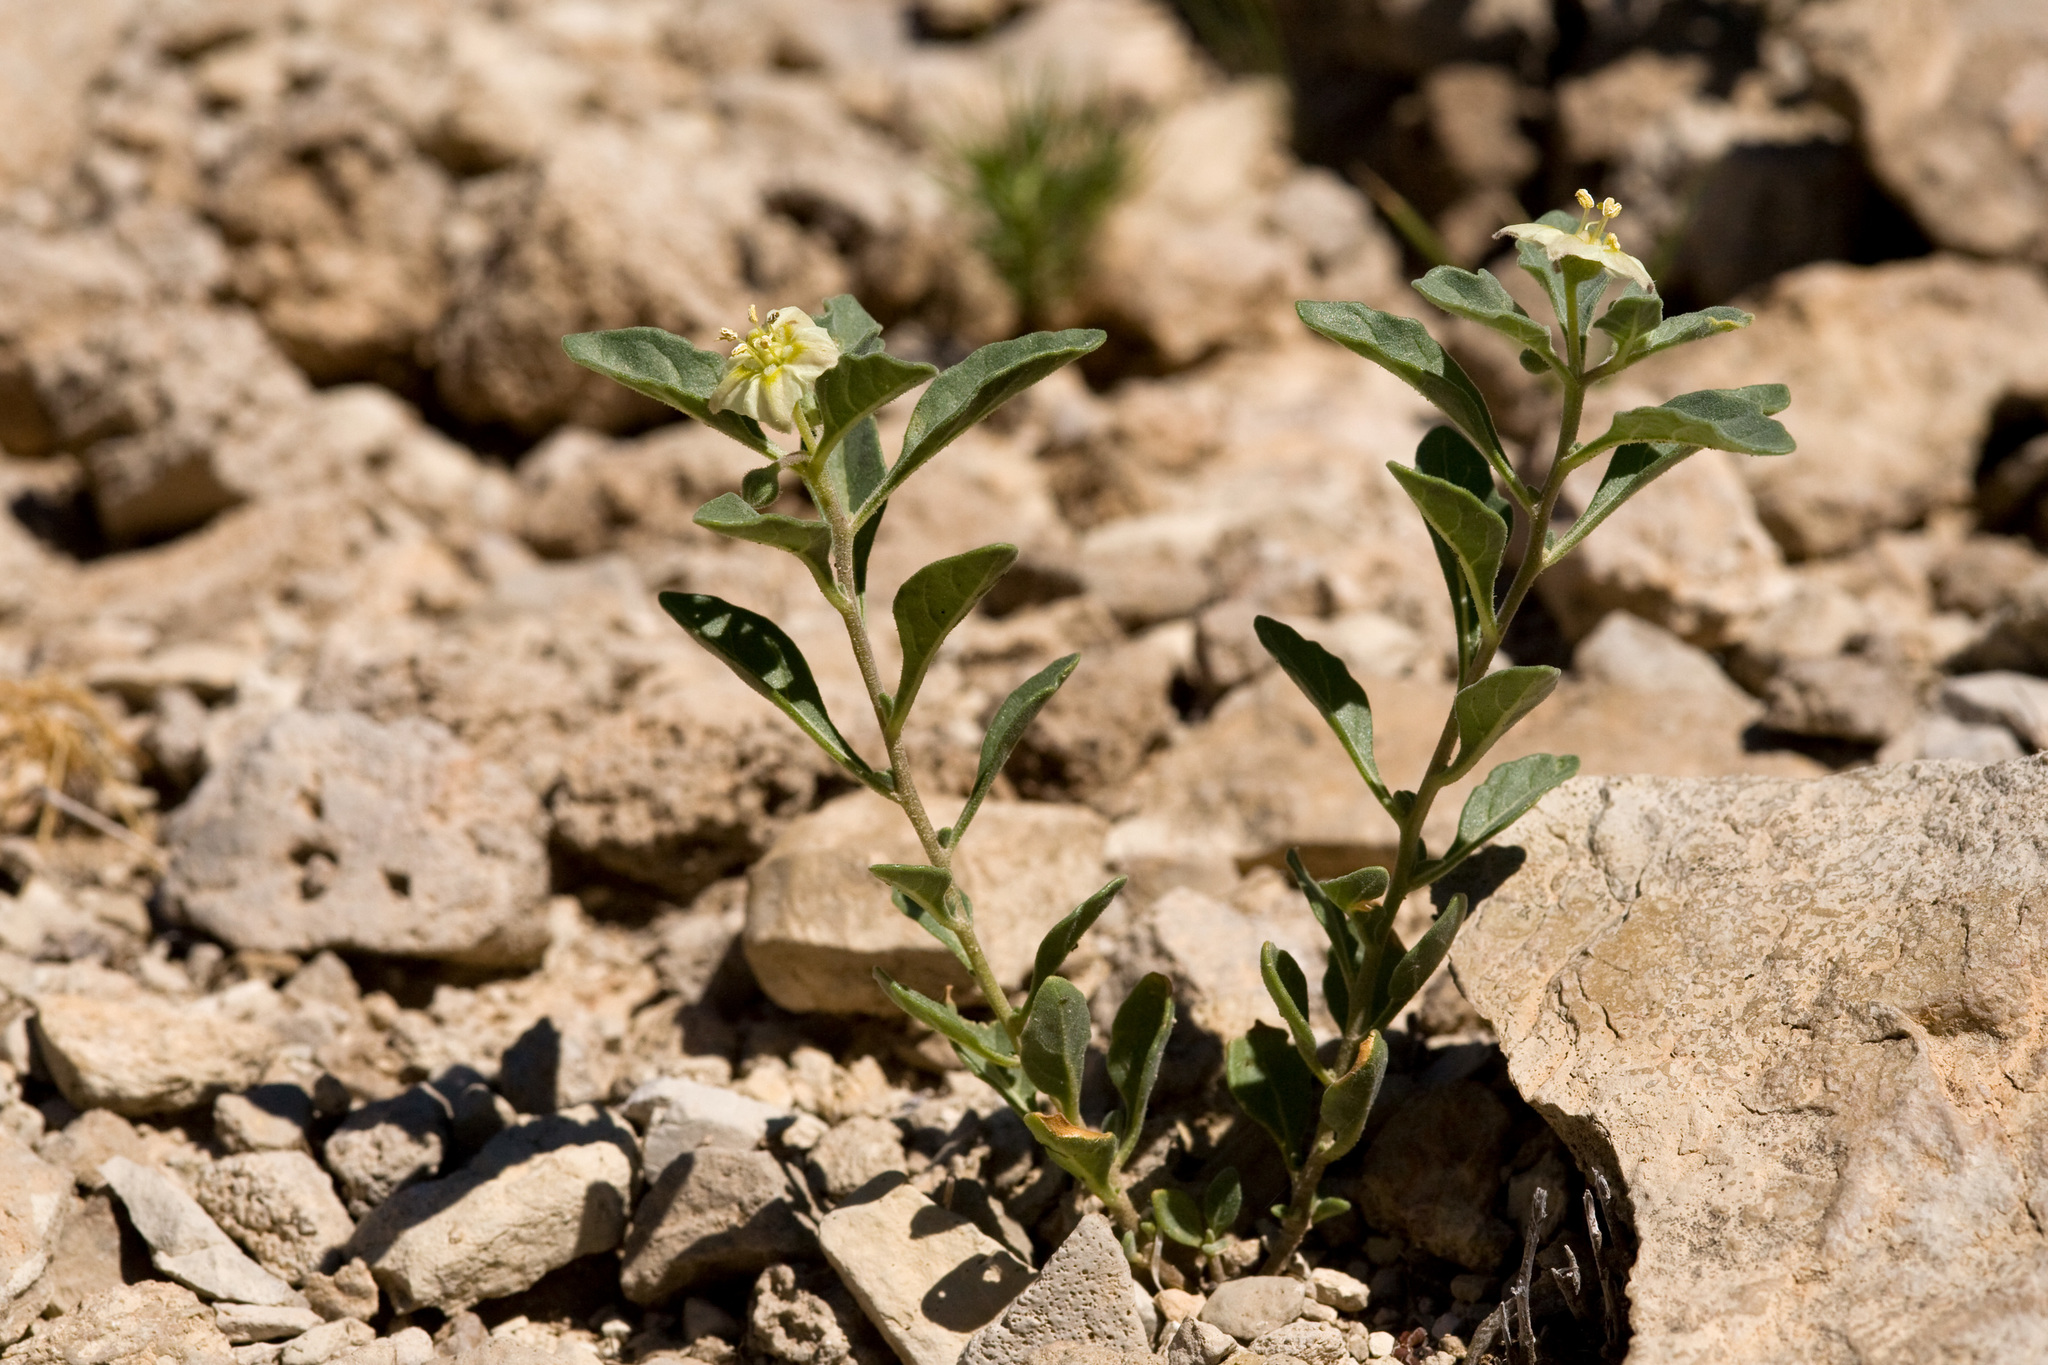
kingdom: Plantae
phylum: Tracheophyta
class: Magnoliopsida
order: Solanales
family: Solanaceae
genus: Chamaesaracha
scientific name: Chamaesaracha pallida
